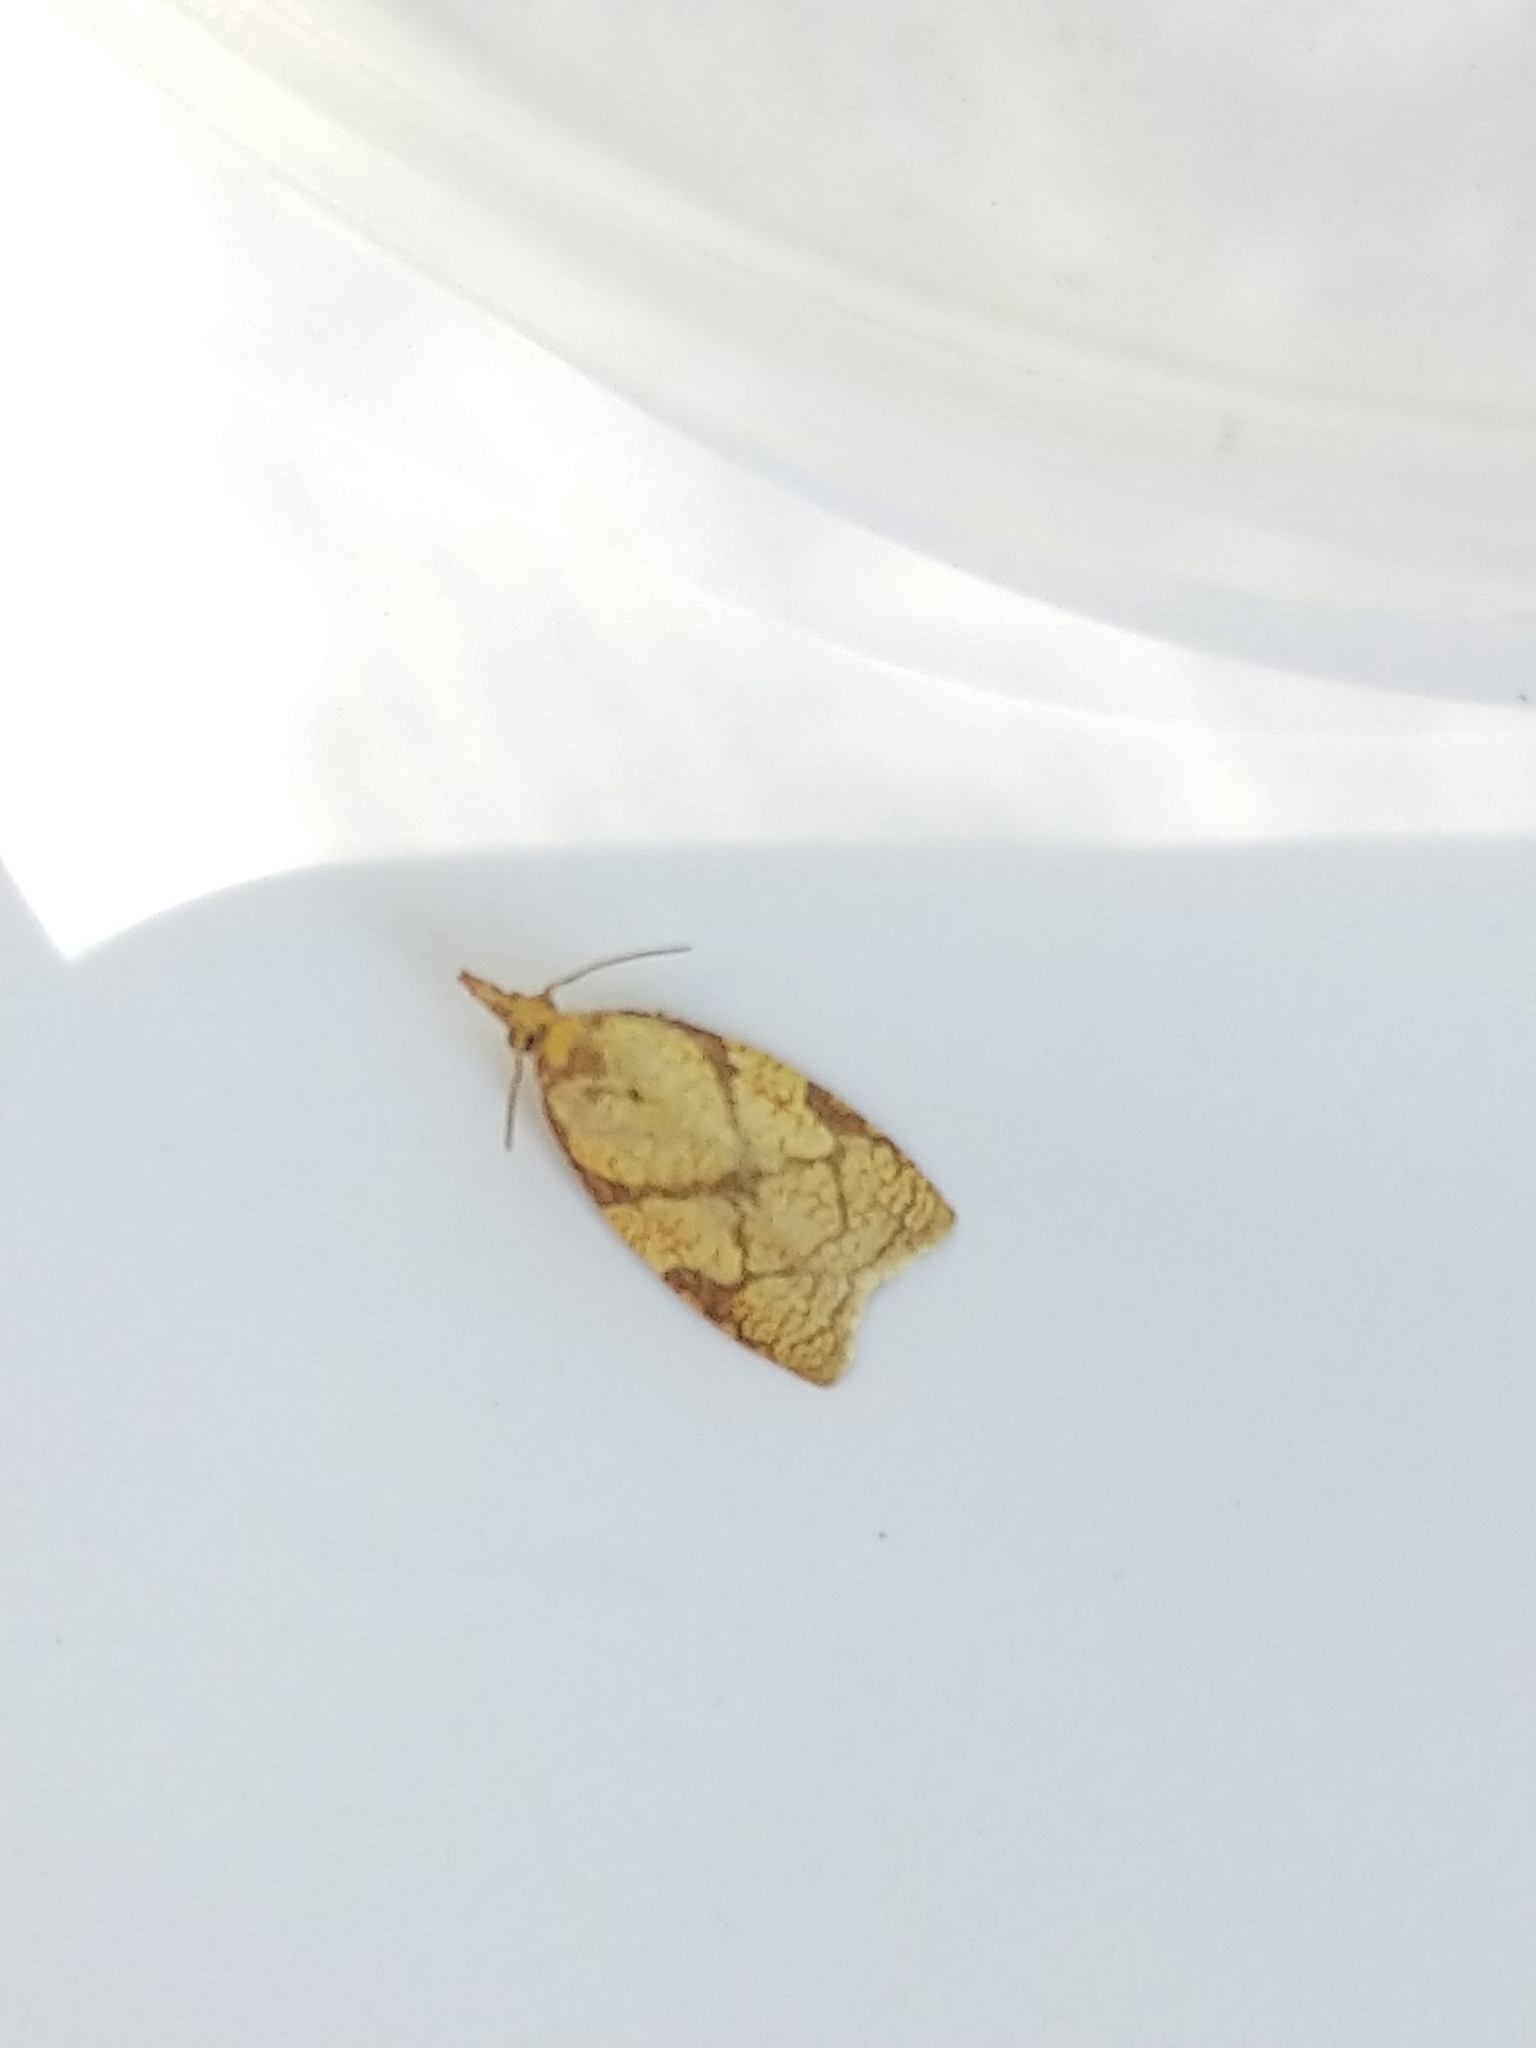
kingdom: Animalia
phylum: Arthropoda
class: Insecta
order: Lepidoptera
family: Tortricidae
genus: Cenopis
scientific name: Cenopis reticulatana
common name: Reticulated fruitworm moth
